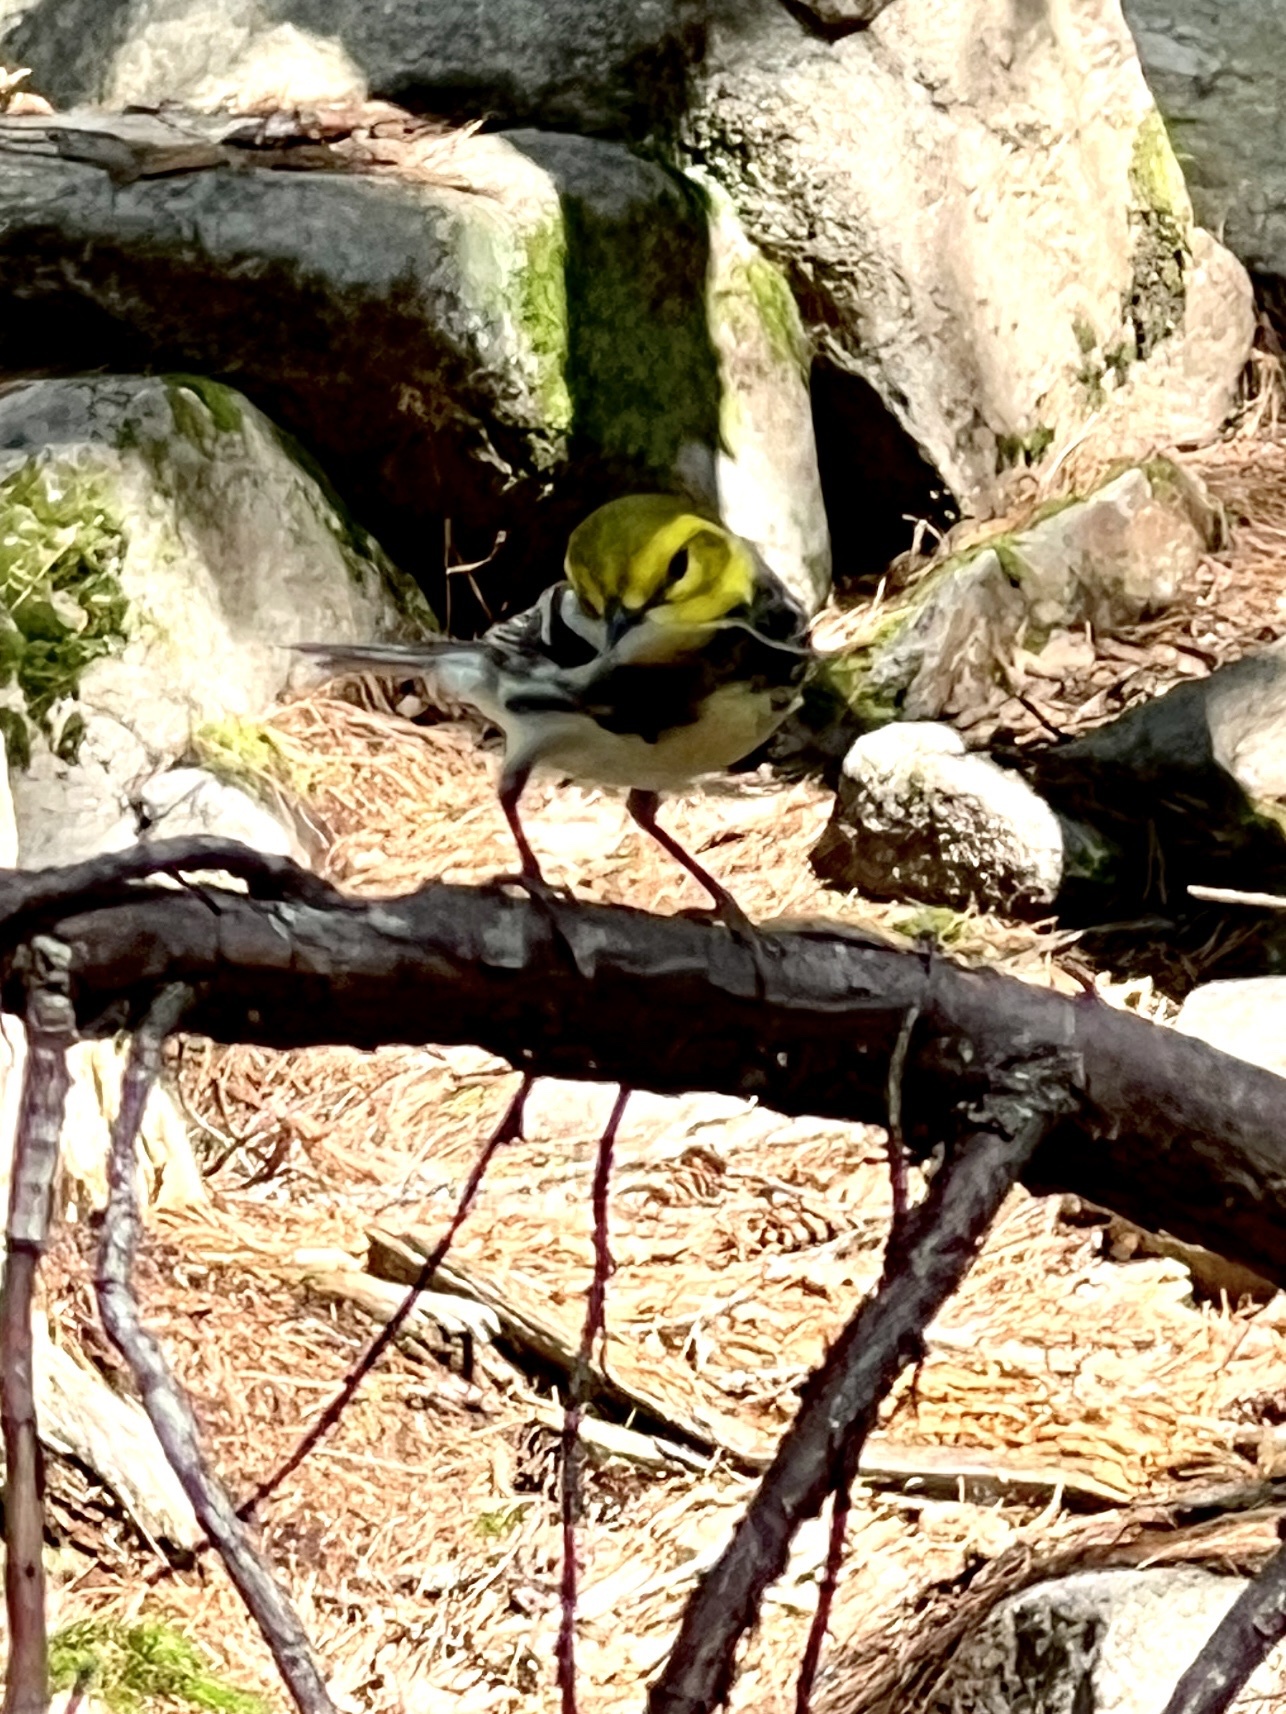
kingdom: Animalia
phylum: Chordata
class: Aves
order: Passeriformes
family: Parulidae
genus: Setophaga
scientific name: Setophaga virens
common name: Black-throated green warbler
